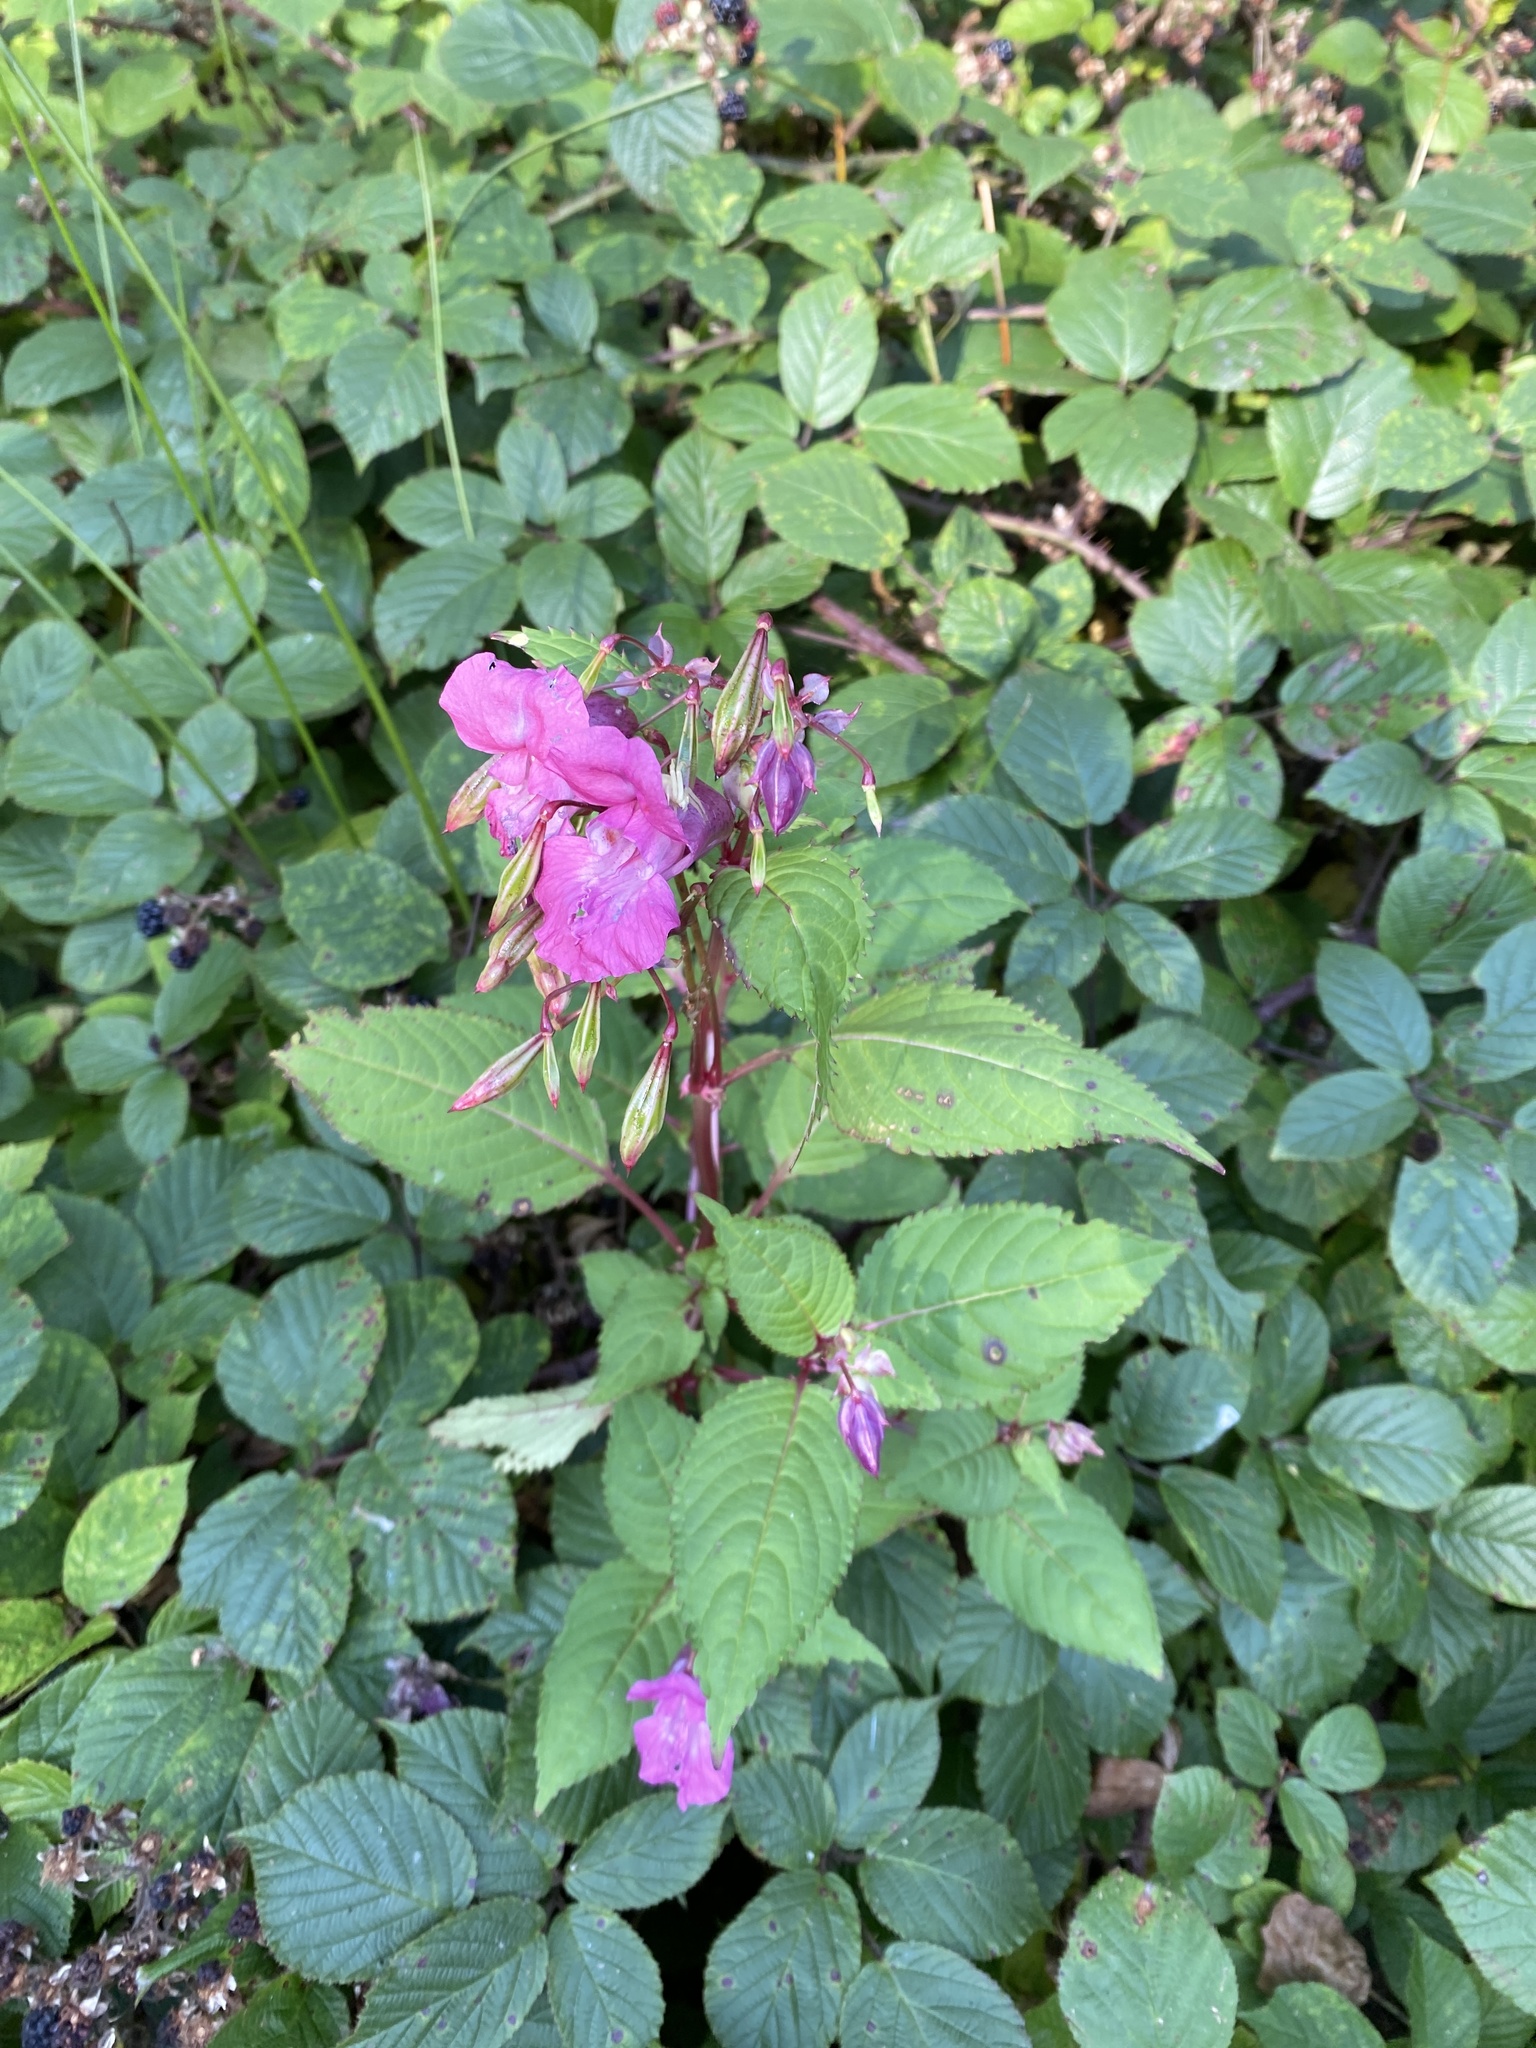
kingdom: Plantae
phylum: Tracheophyta
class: Magnoliopsida
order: Ericales
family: Balsaminaceae
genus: Impatiens
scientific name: Impatiens glandulifera
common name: Himalayan balsam
